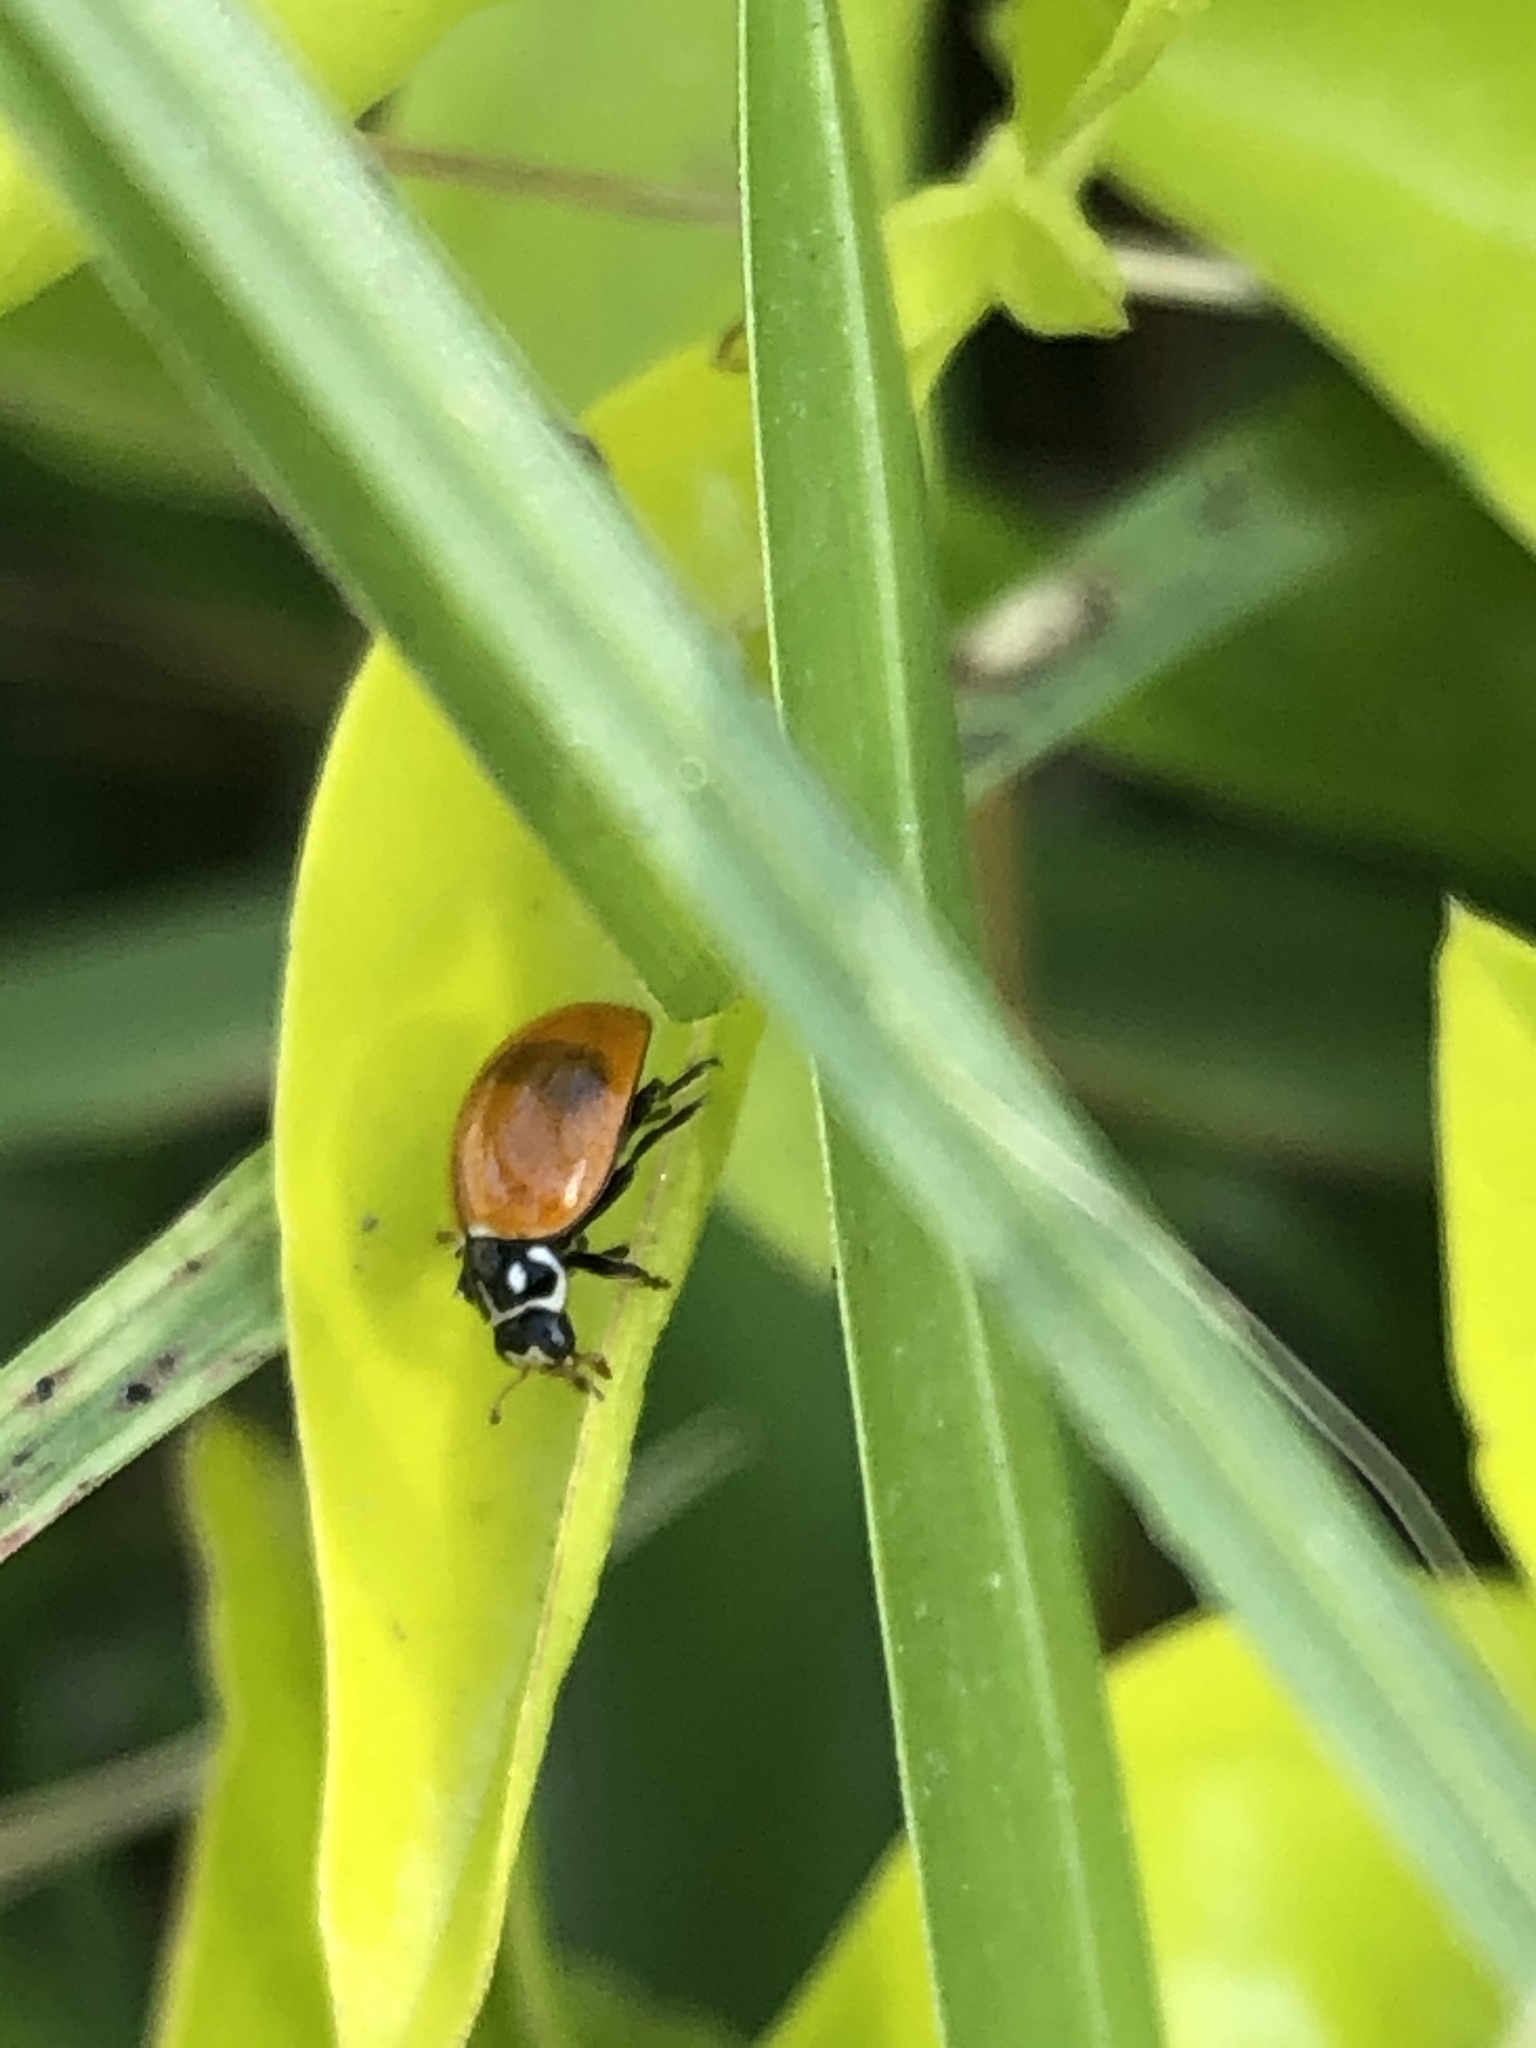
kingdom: Animalia
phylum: Arthropoda
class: Insecta
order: Coleoptera
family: Coccinellidae
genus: Cycloneda
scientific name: Cycloneda sanguinea
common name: Ladybird beetle
